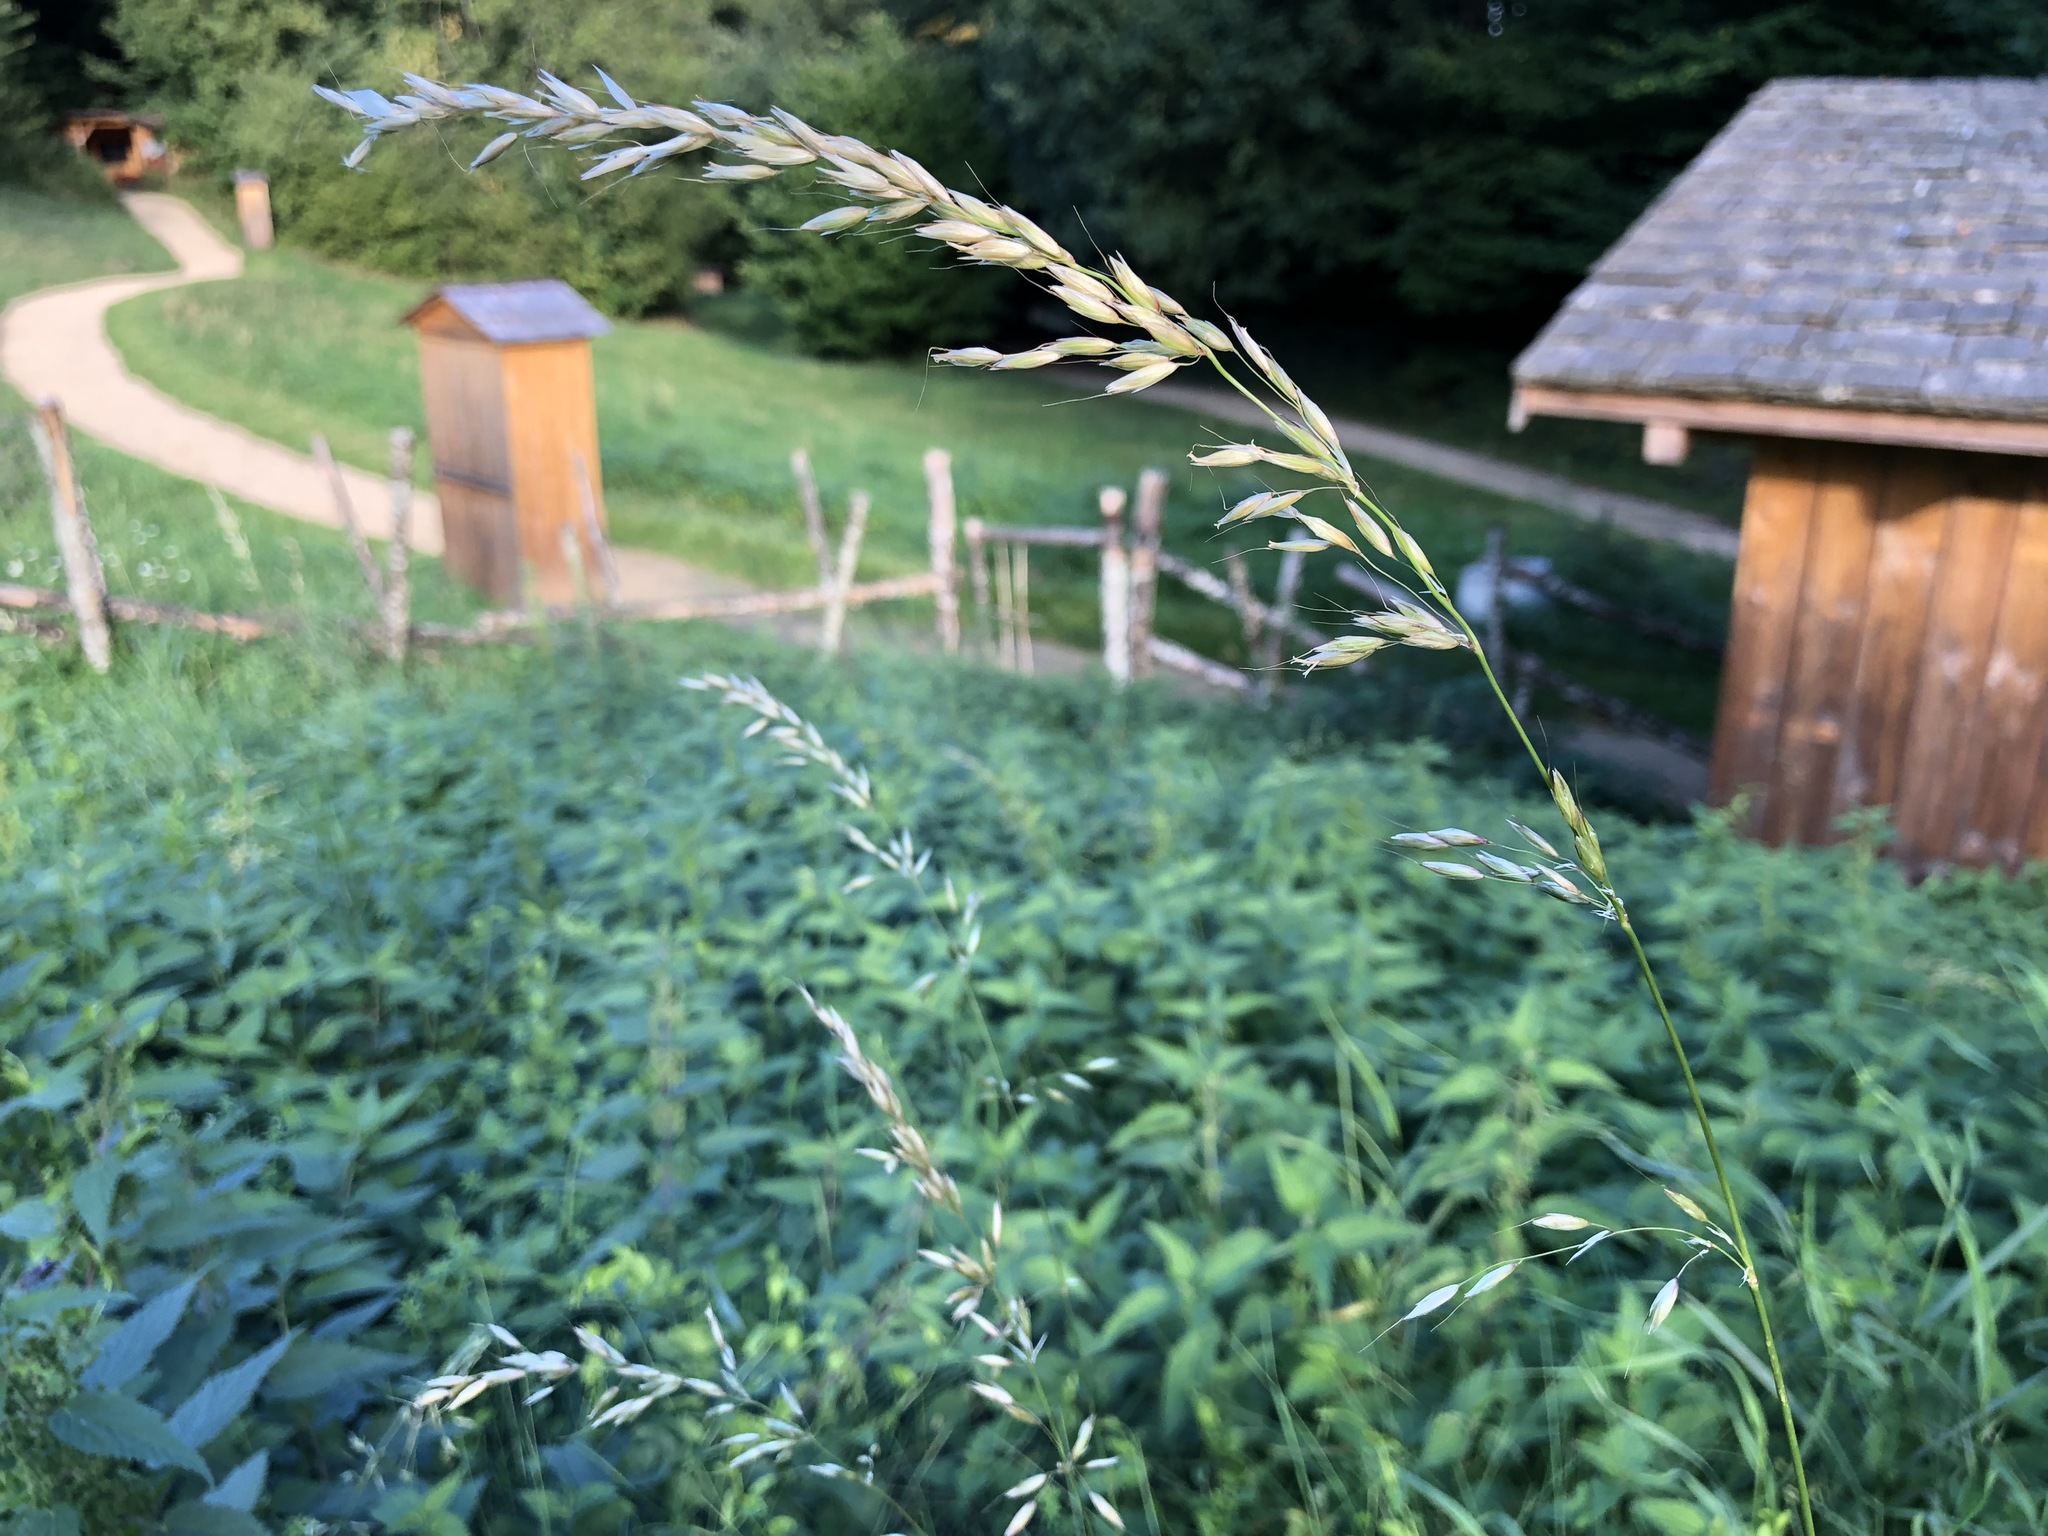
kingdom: Plantae
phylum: Tracheophyta
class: Liliopsida
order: Poales
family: Poaceae
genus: Arrhenatherum
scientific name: Arrhenatherum elatius
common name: Tall oatgrass
